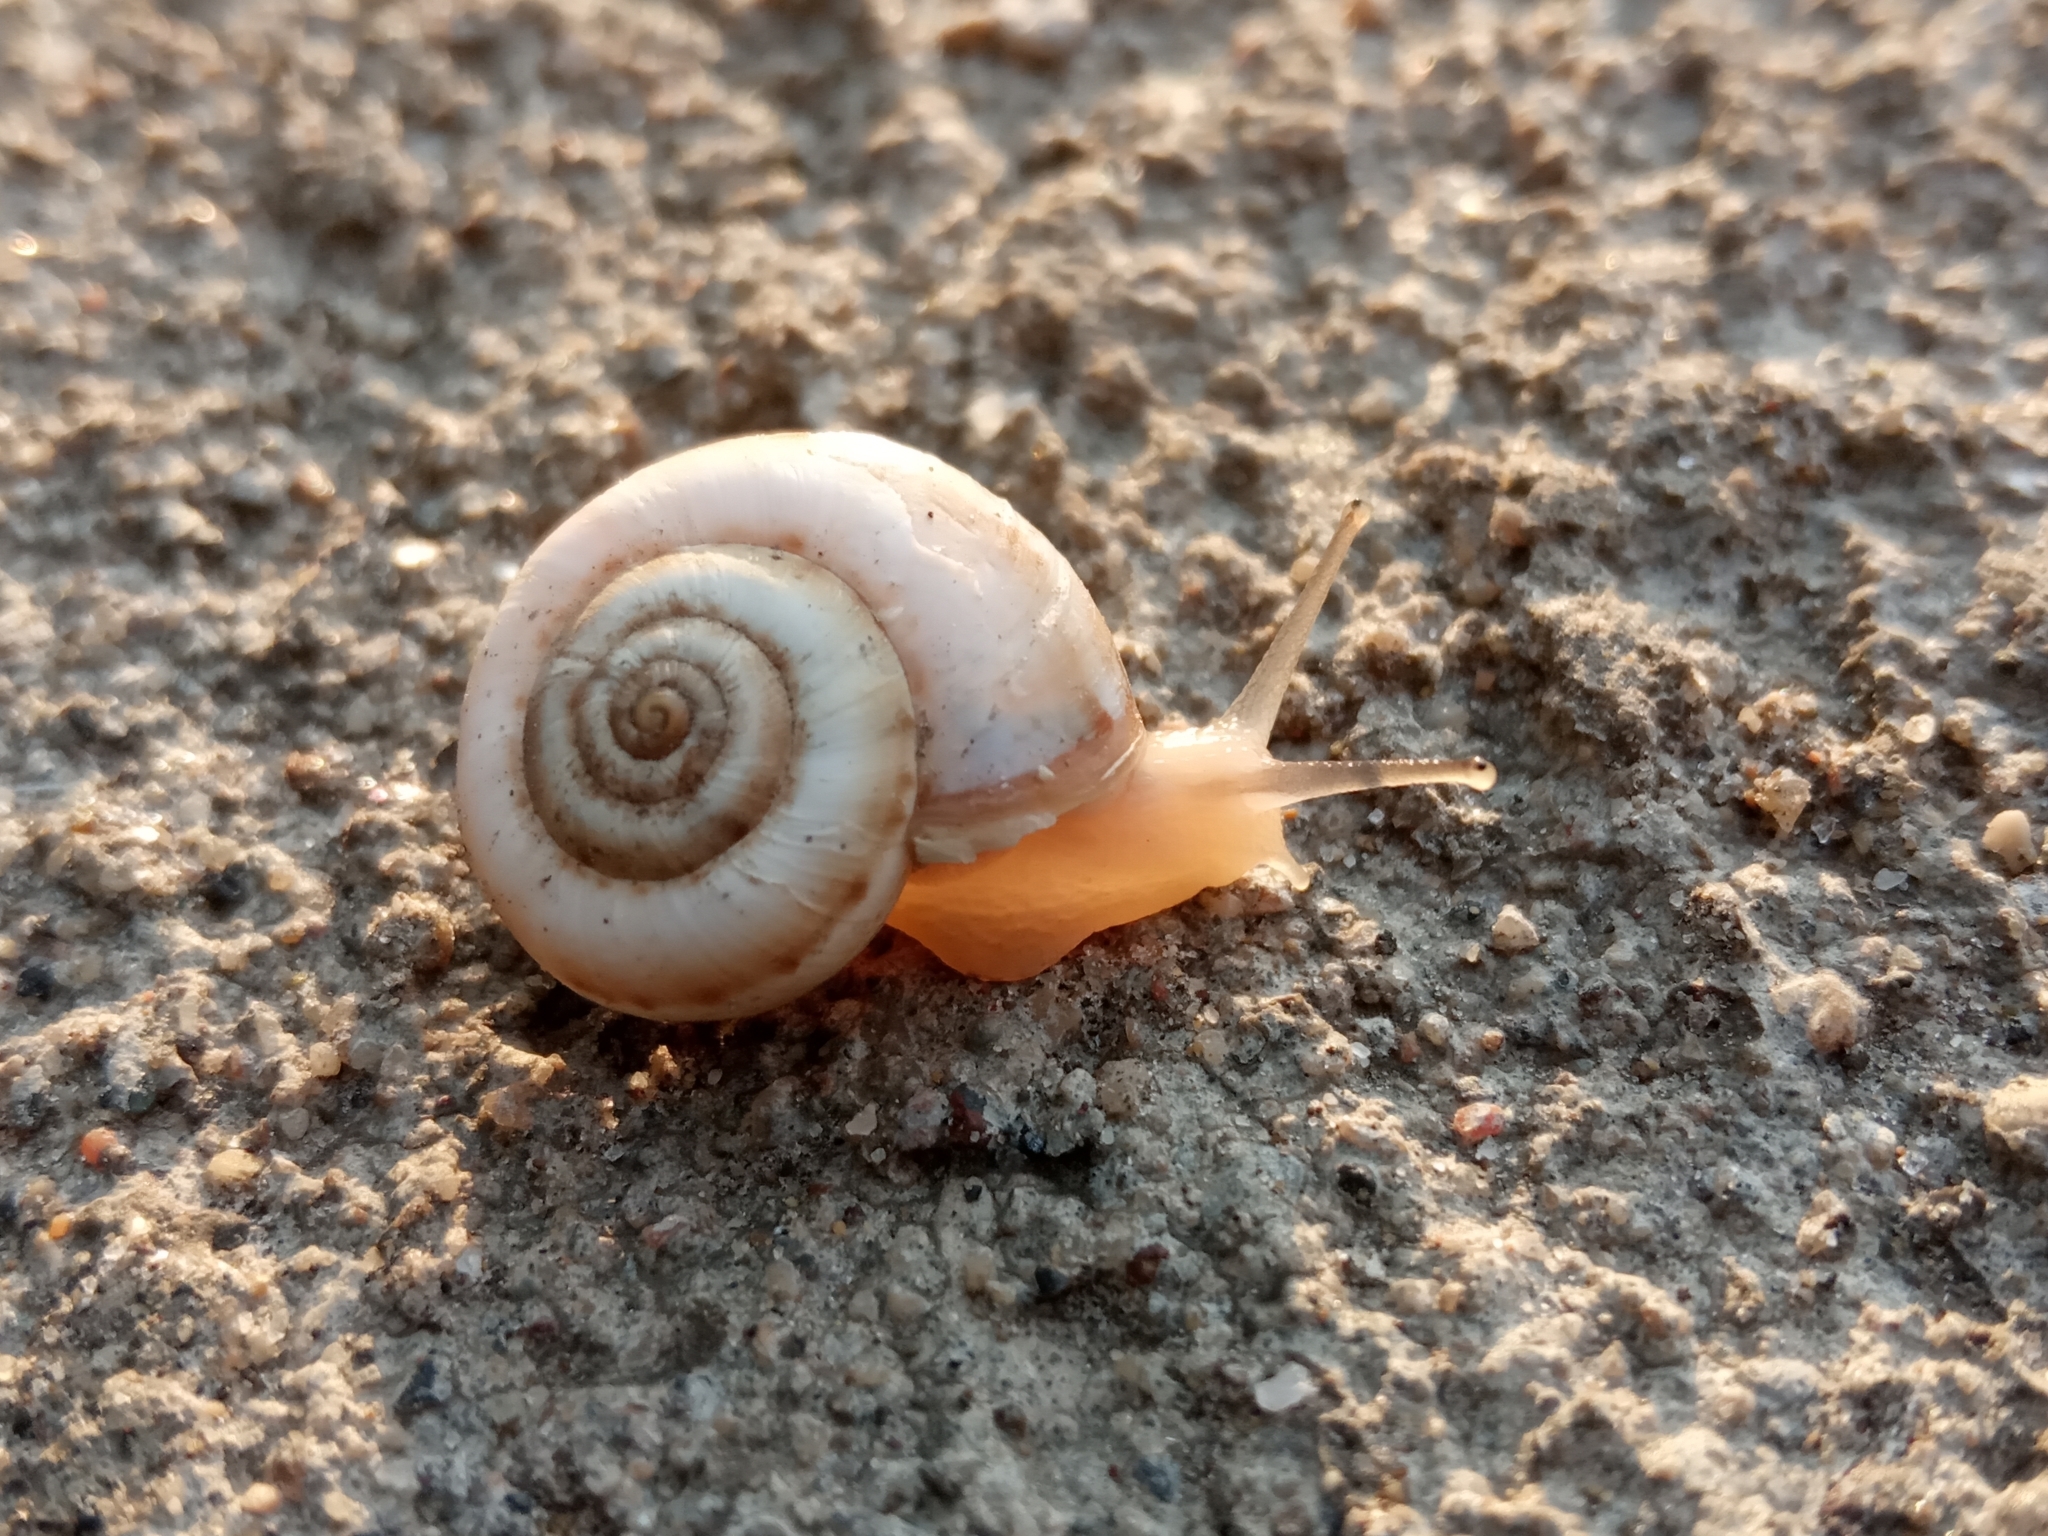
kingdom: Animalia
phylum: Mollusca
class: Gastropoda
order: Stylommatophora
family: Geomitridae
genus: Xeropicta
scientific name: Xeropicta derbentina
